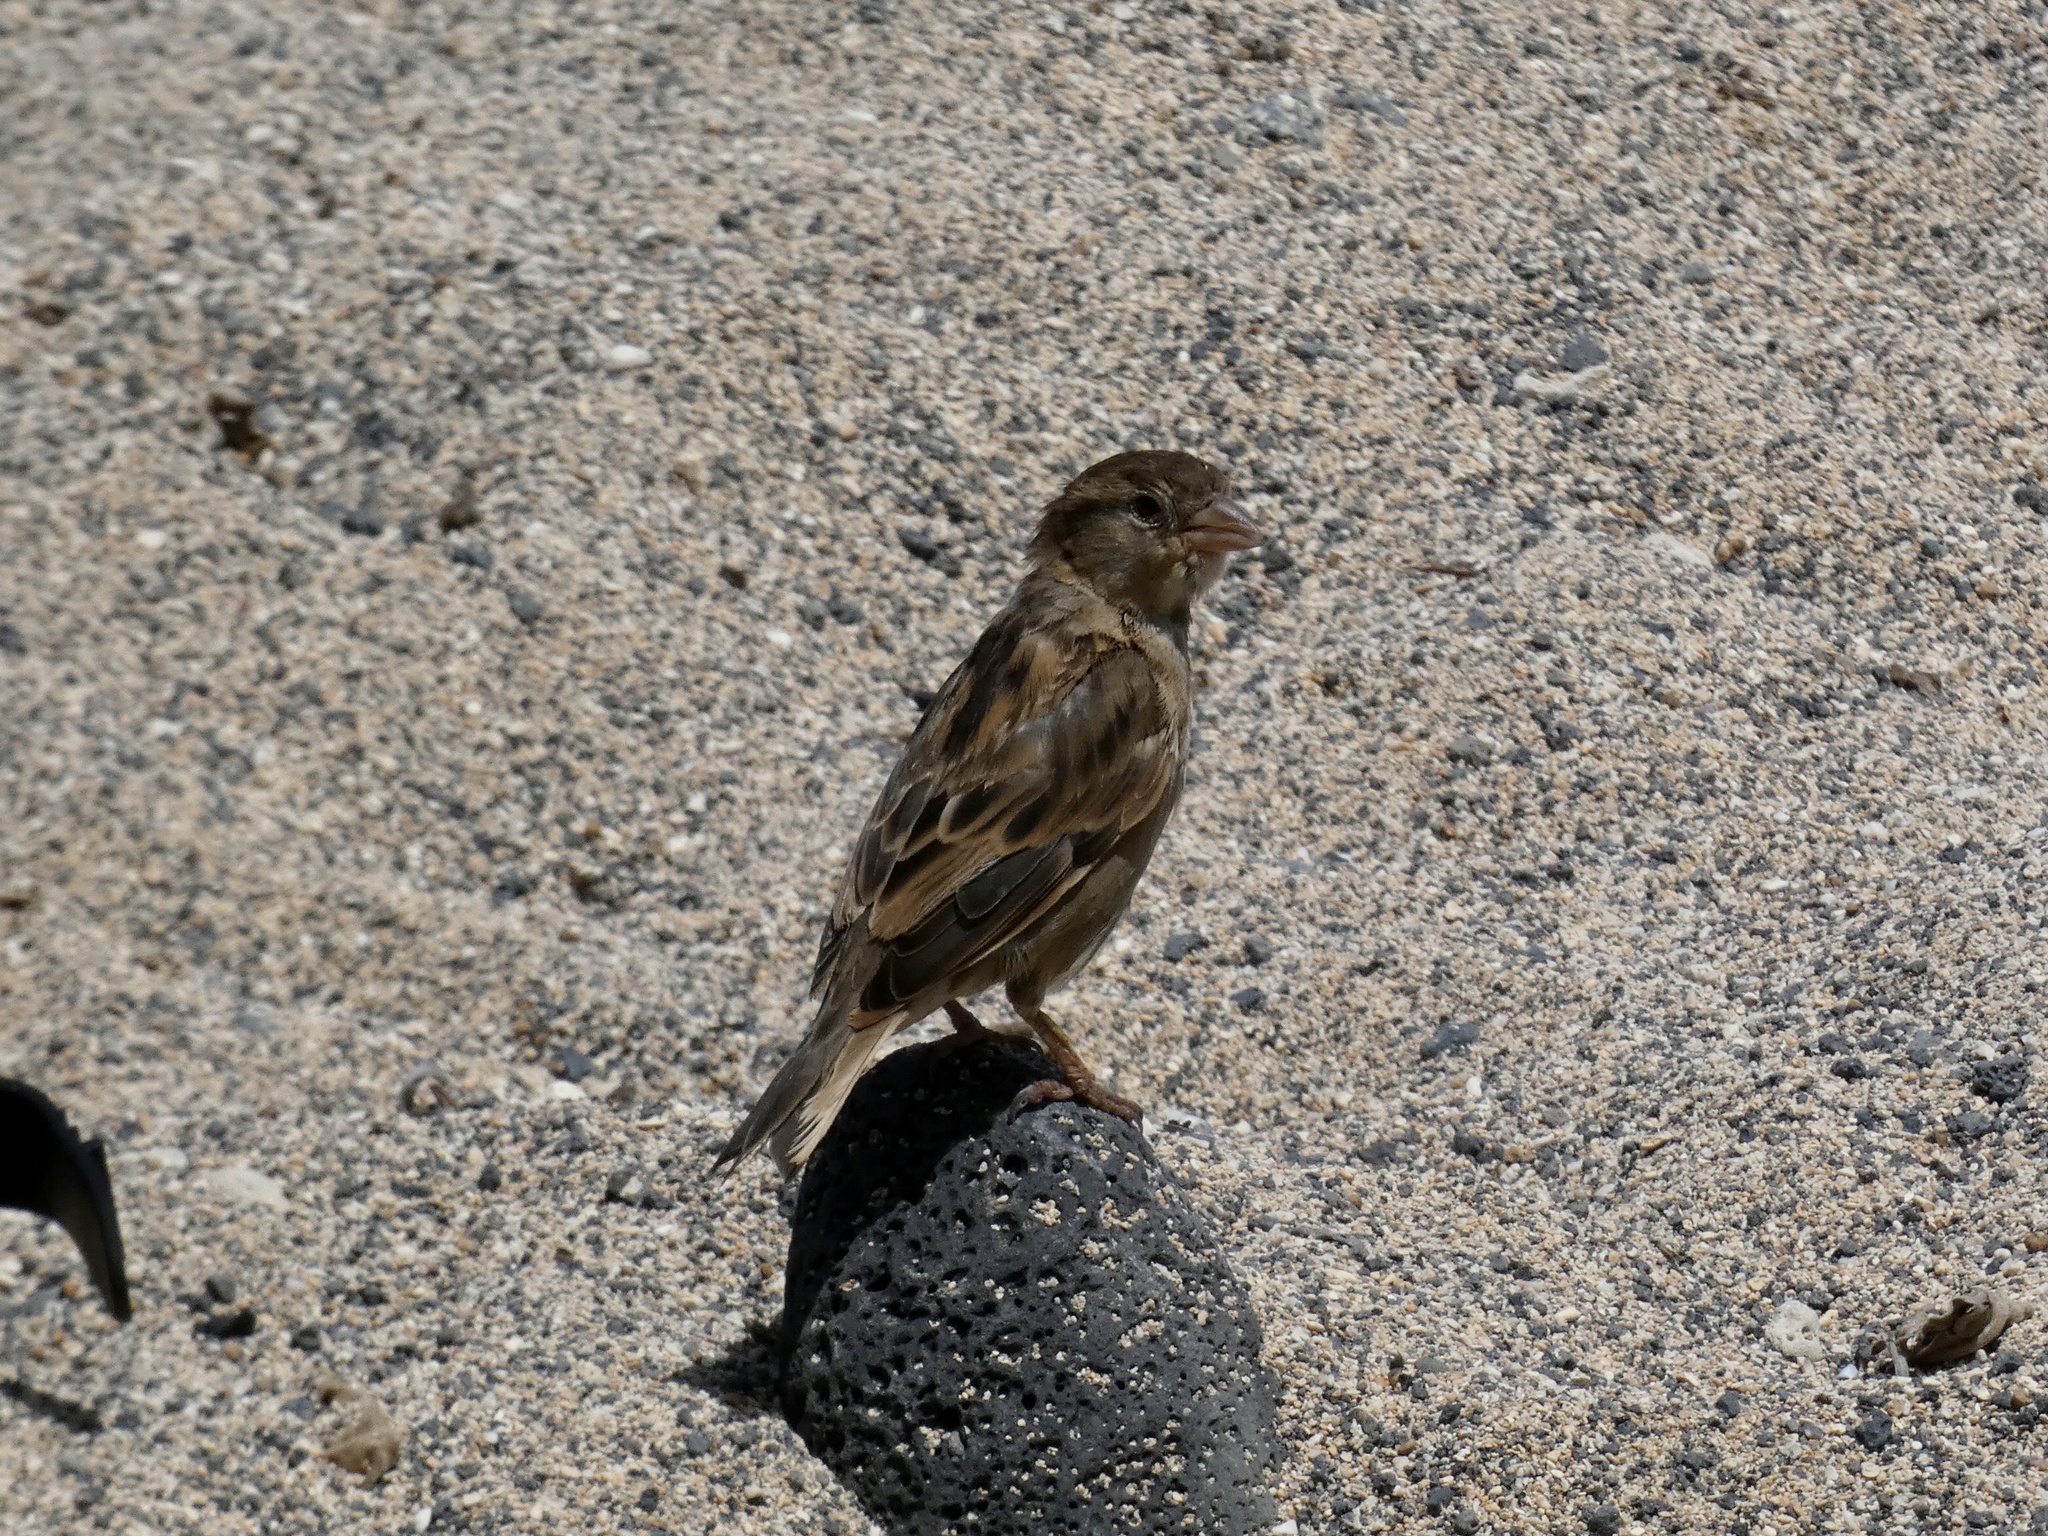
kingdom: Animalia
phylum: Chordata
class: Aves
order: Passeriformes
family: Passeridae
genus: Passer
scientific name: Passer domesticus
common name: House sparrow
